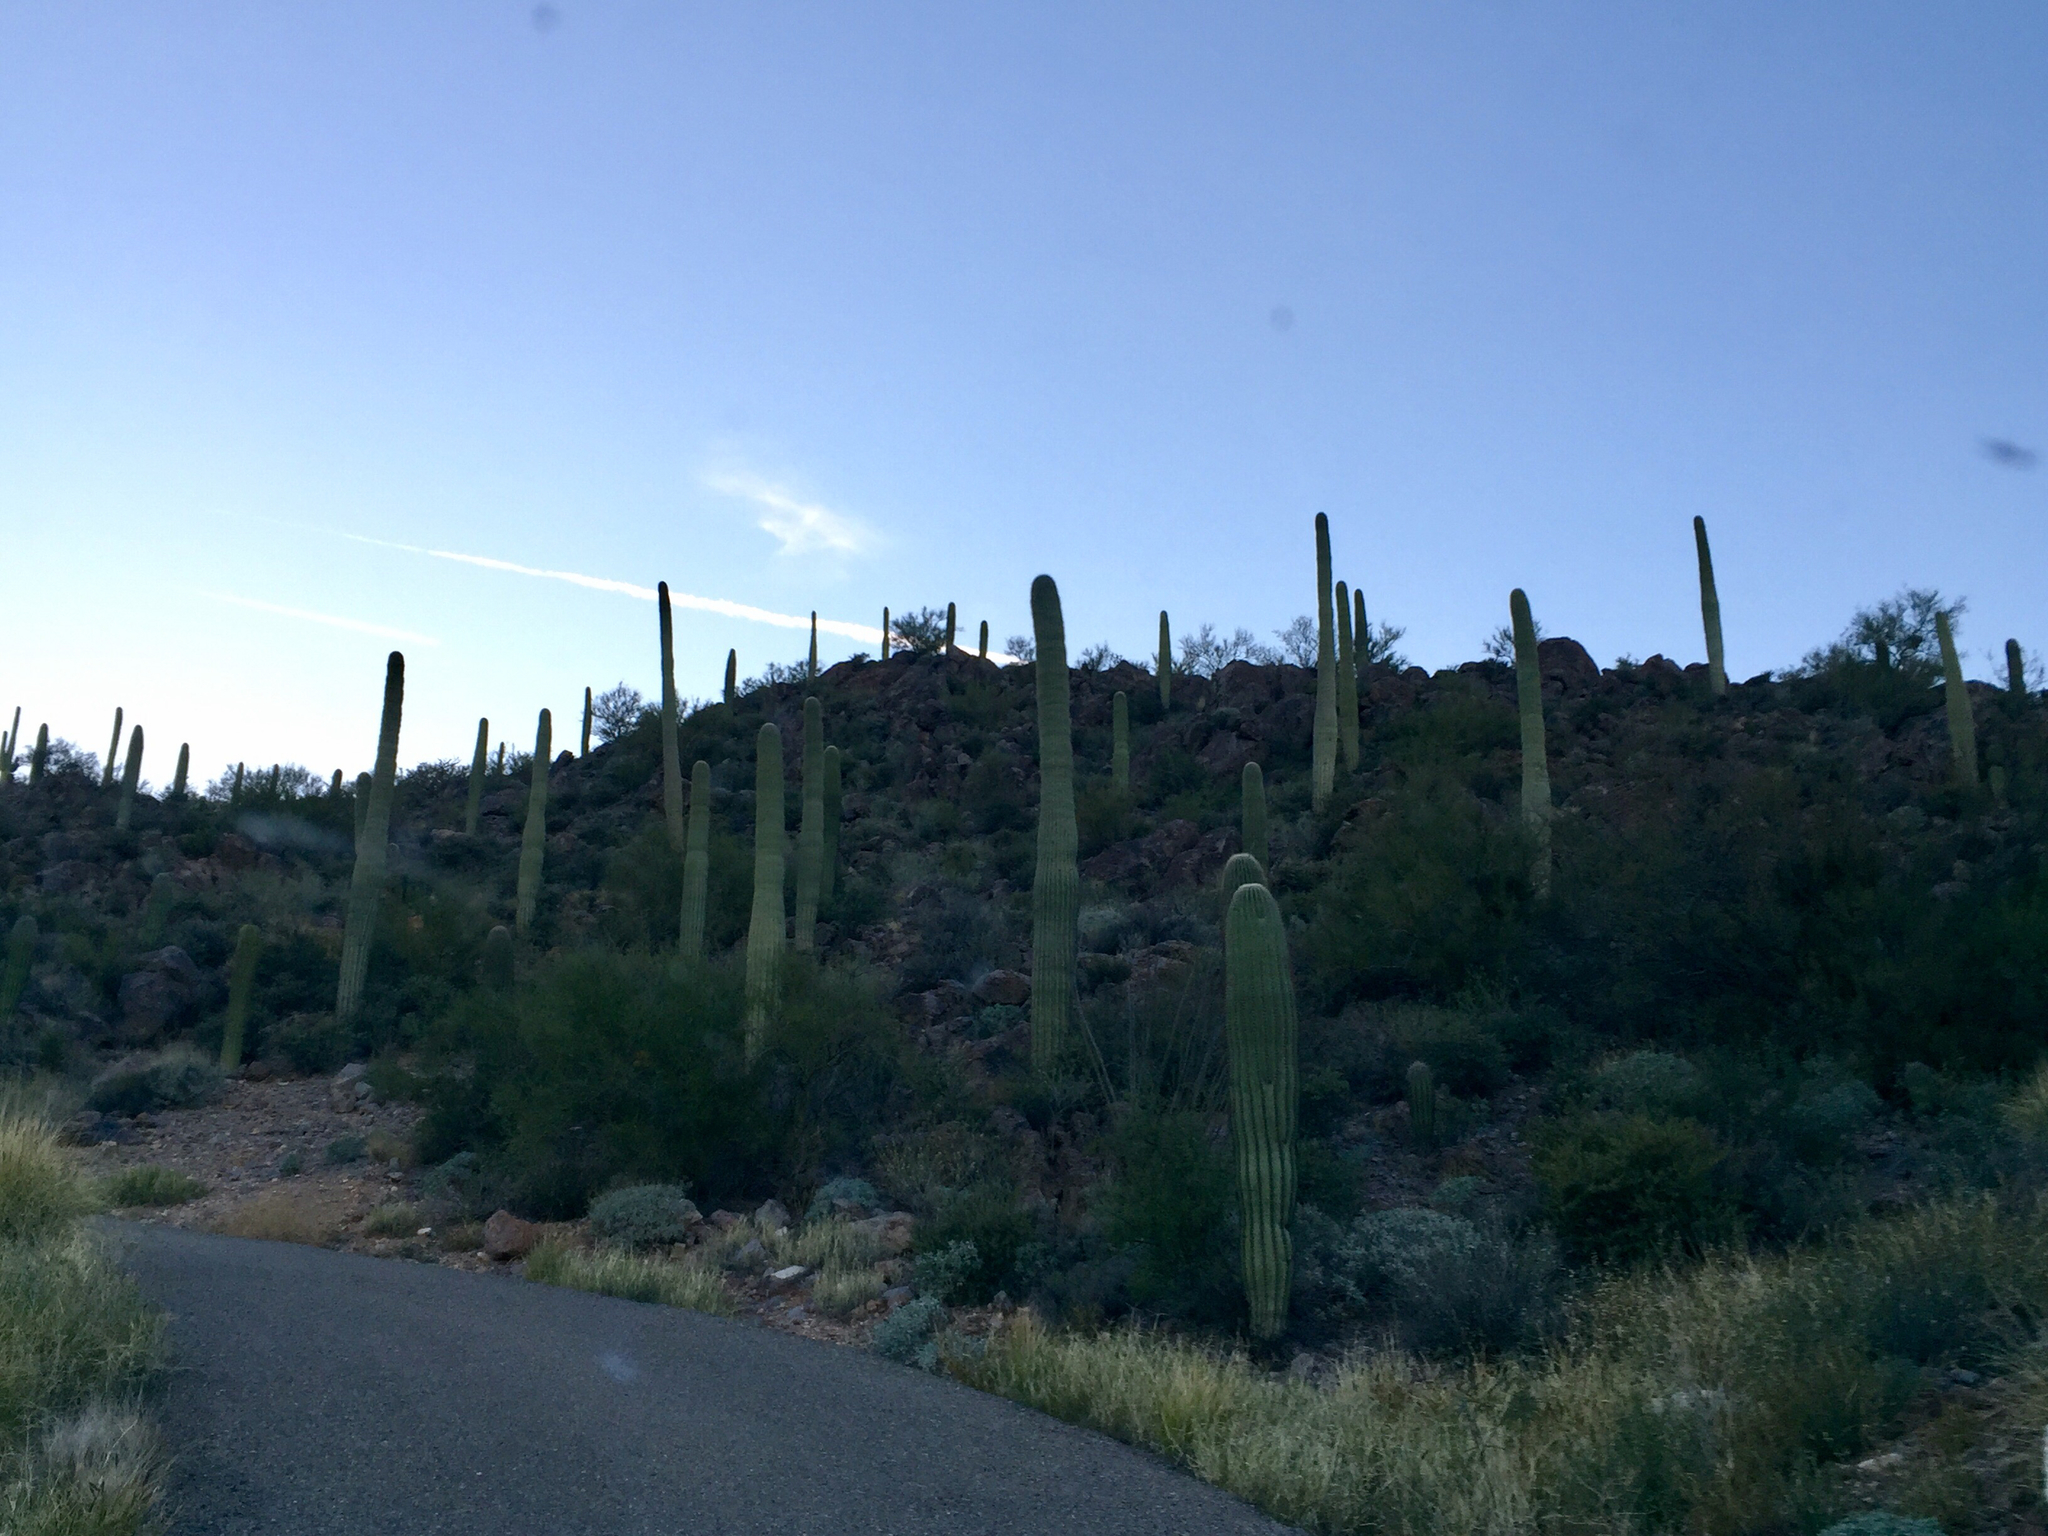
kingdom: Plantae
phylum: Tracheophyta
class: Magnoliopsida
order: Caryophyllales
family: Cactaceae
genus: Carnegiea
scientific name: Carnegiea gigantea
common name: Saguaro
